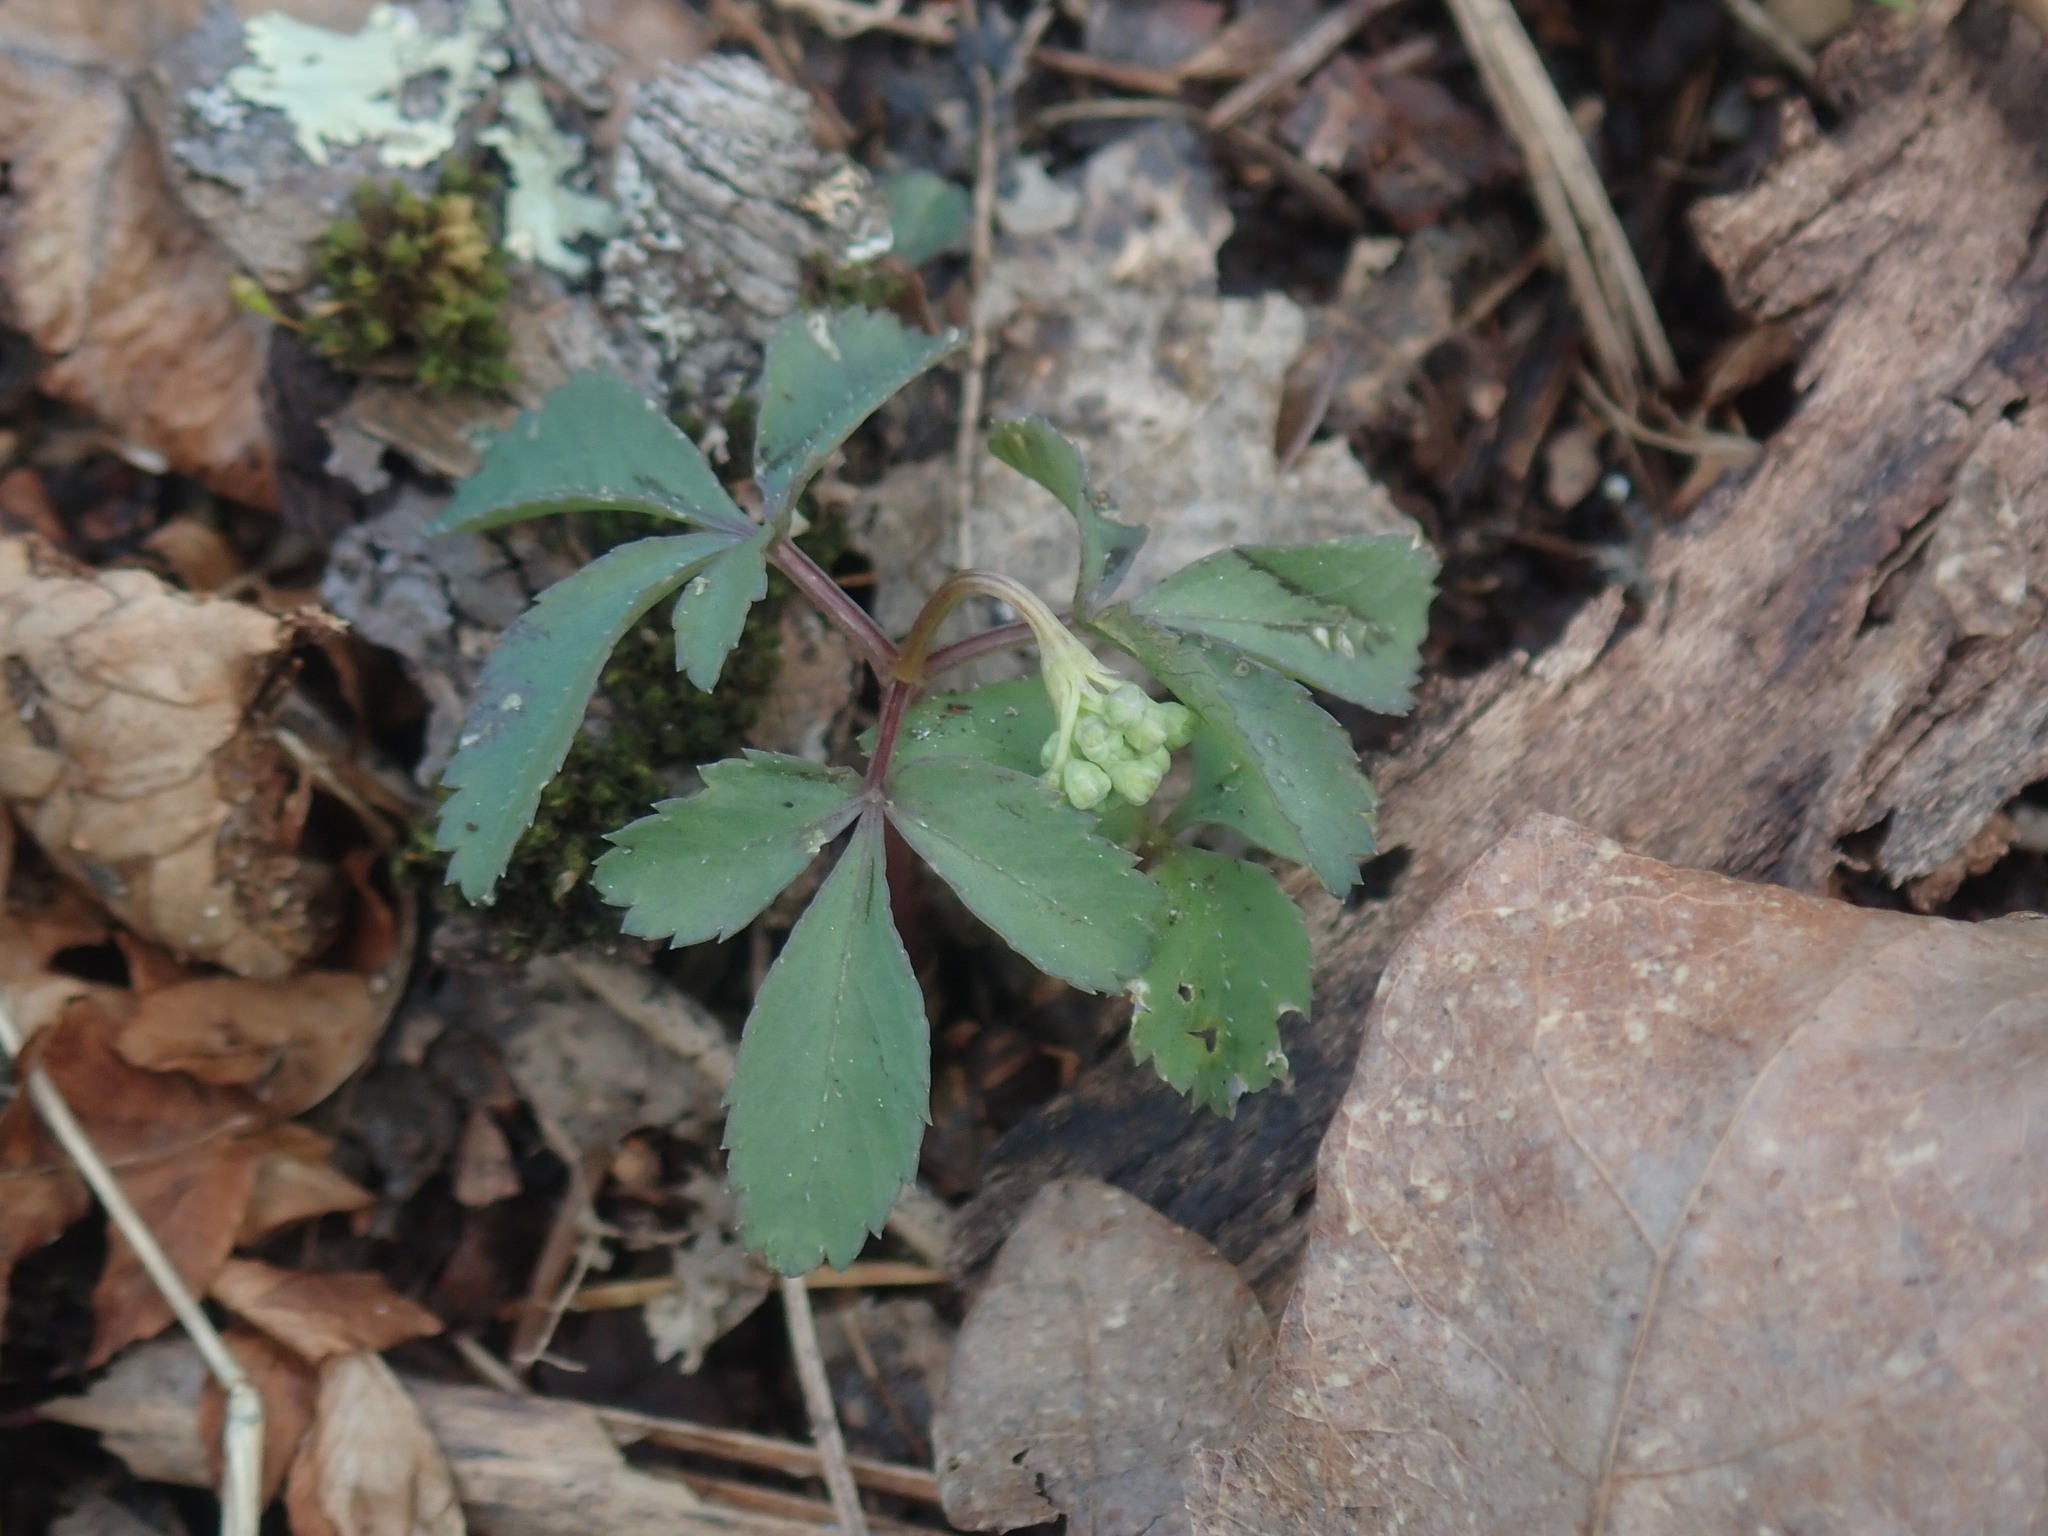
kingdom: Plantae
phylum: Tracheophyta
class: Magnoliopsida
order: Apiales
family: Araliaceae
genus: Panax
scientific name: Panax trifolius
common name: Dwarf ginseng
